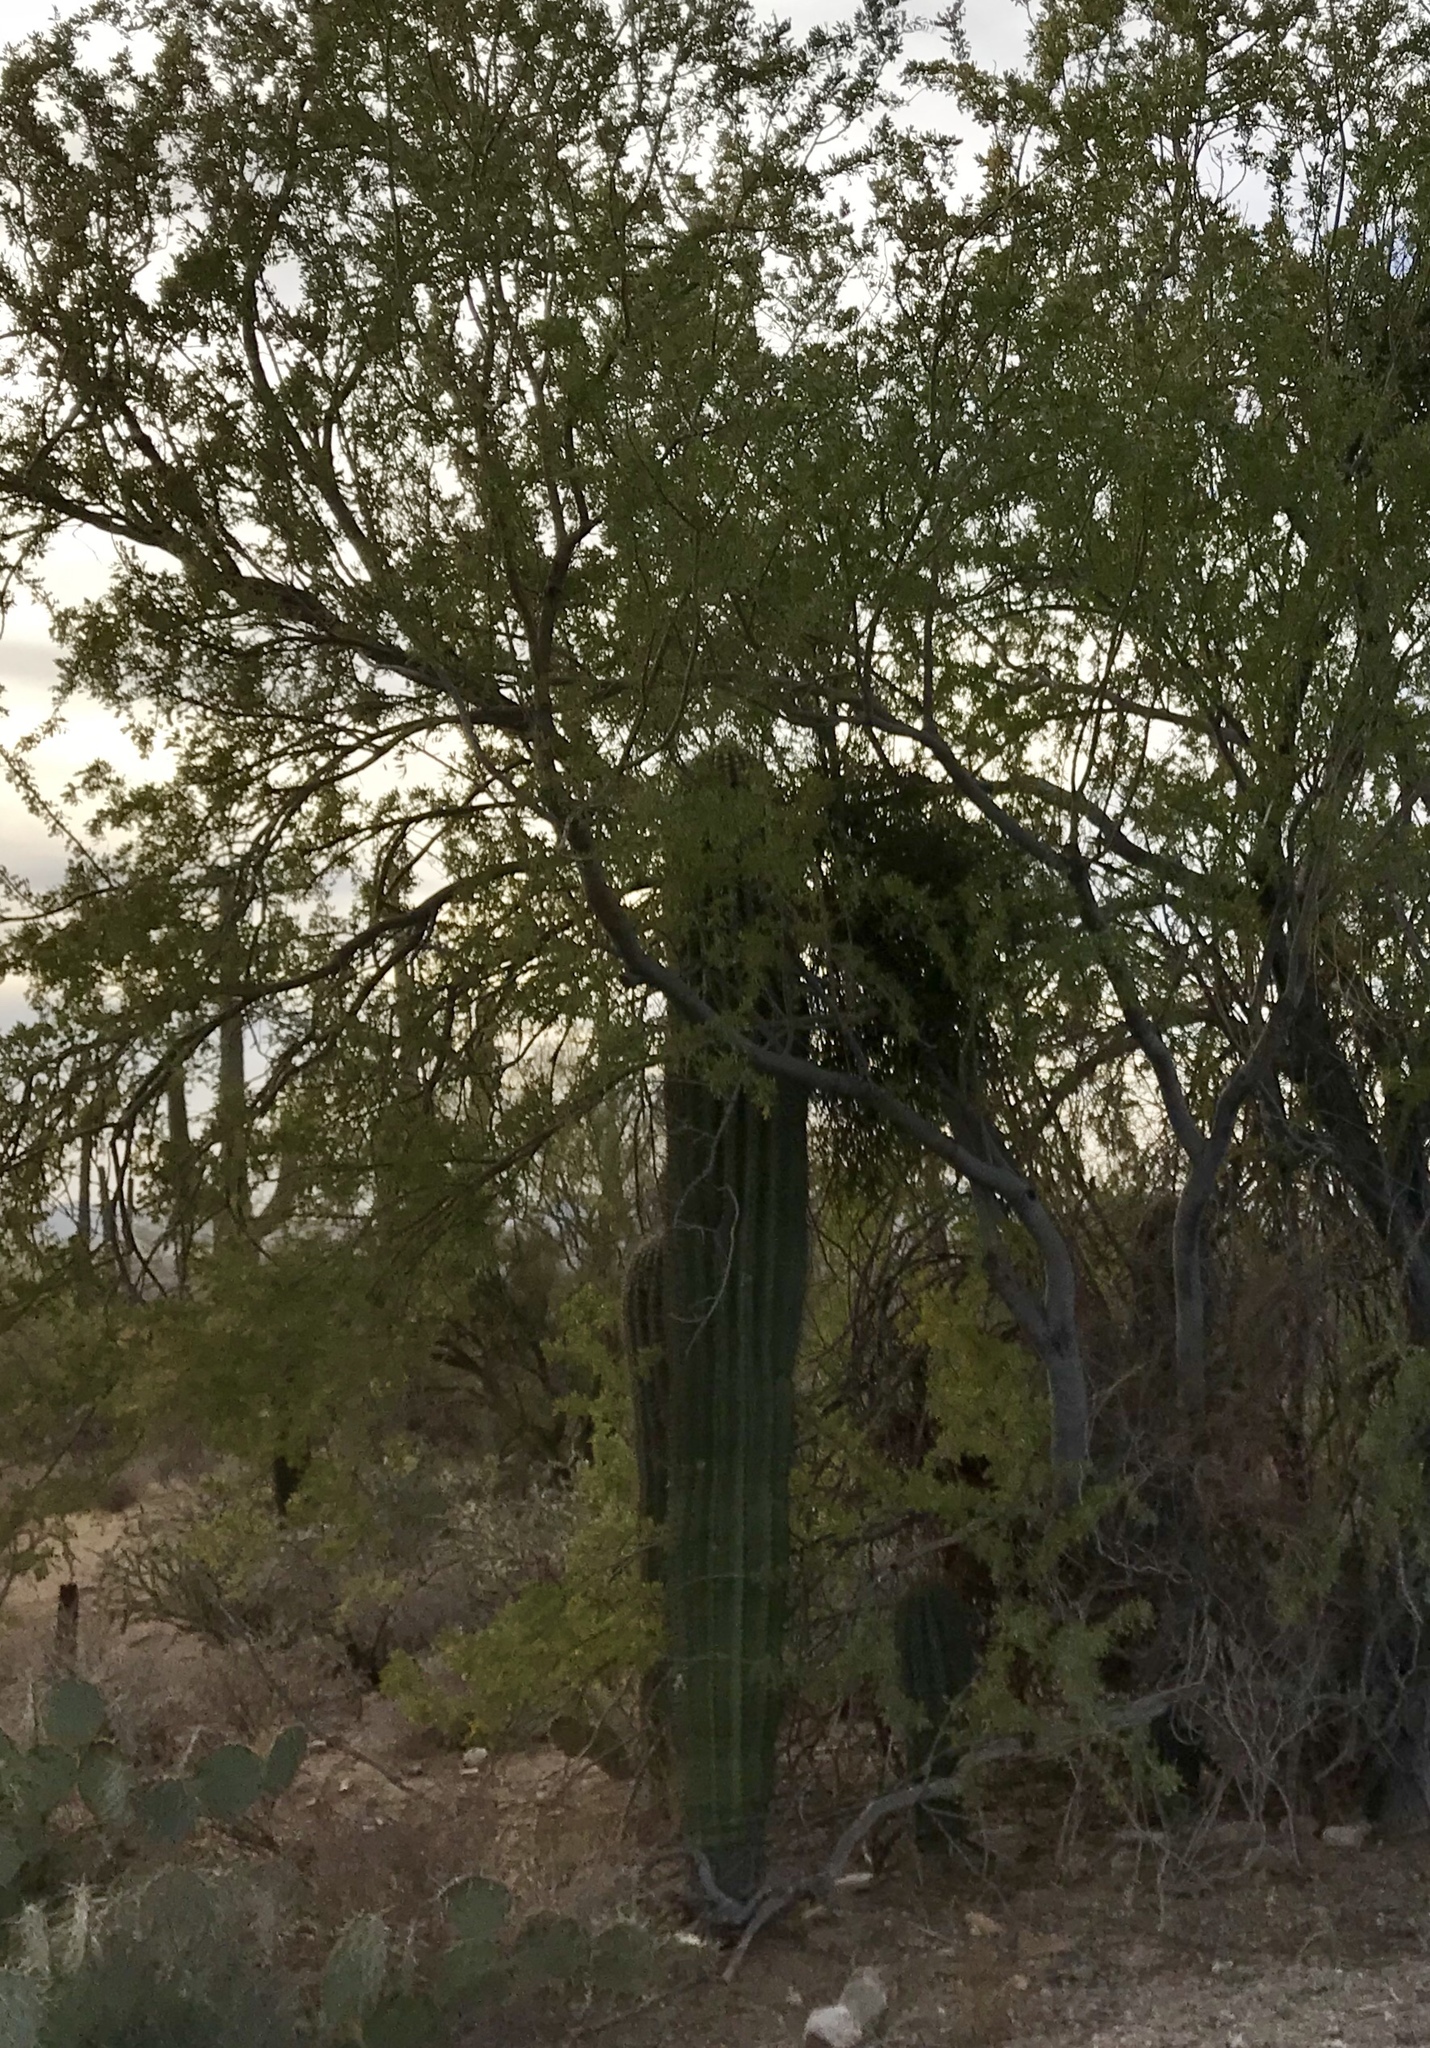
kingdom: Plantae
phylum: Tracheophyta
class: Magnoliopsida
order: Caryophyllales
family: Cactaceae
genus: Carnegiea
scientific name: Carnegiea gigantea
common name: Saguaro
